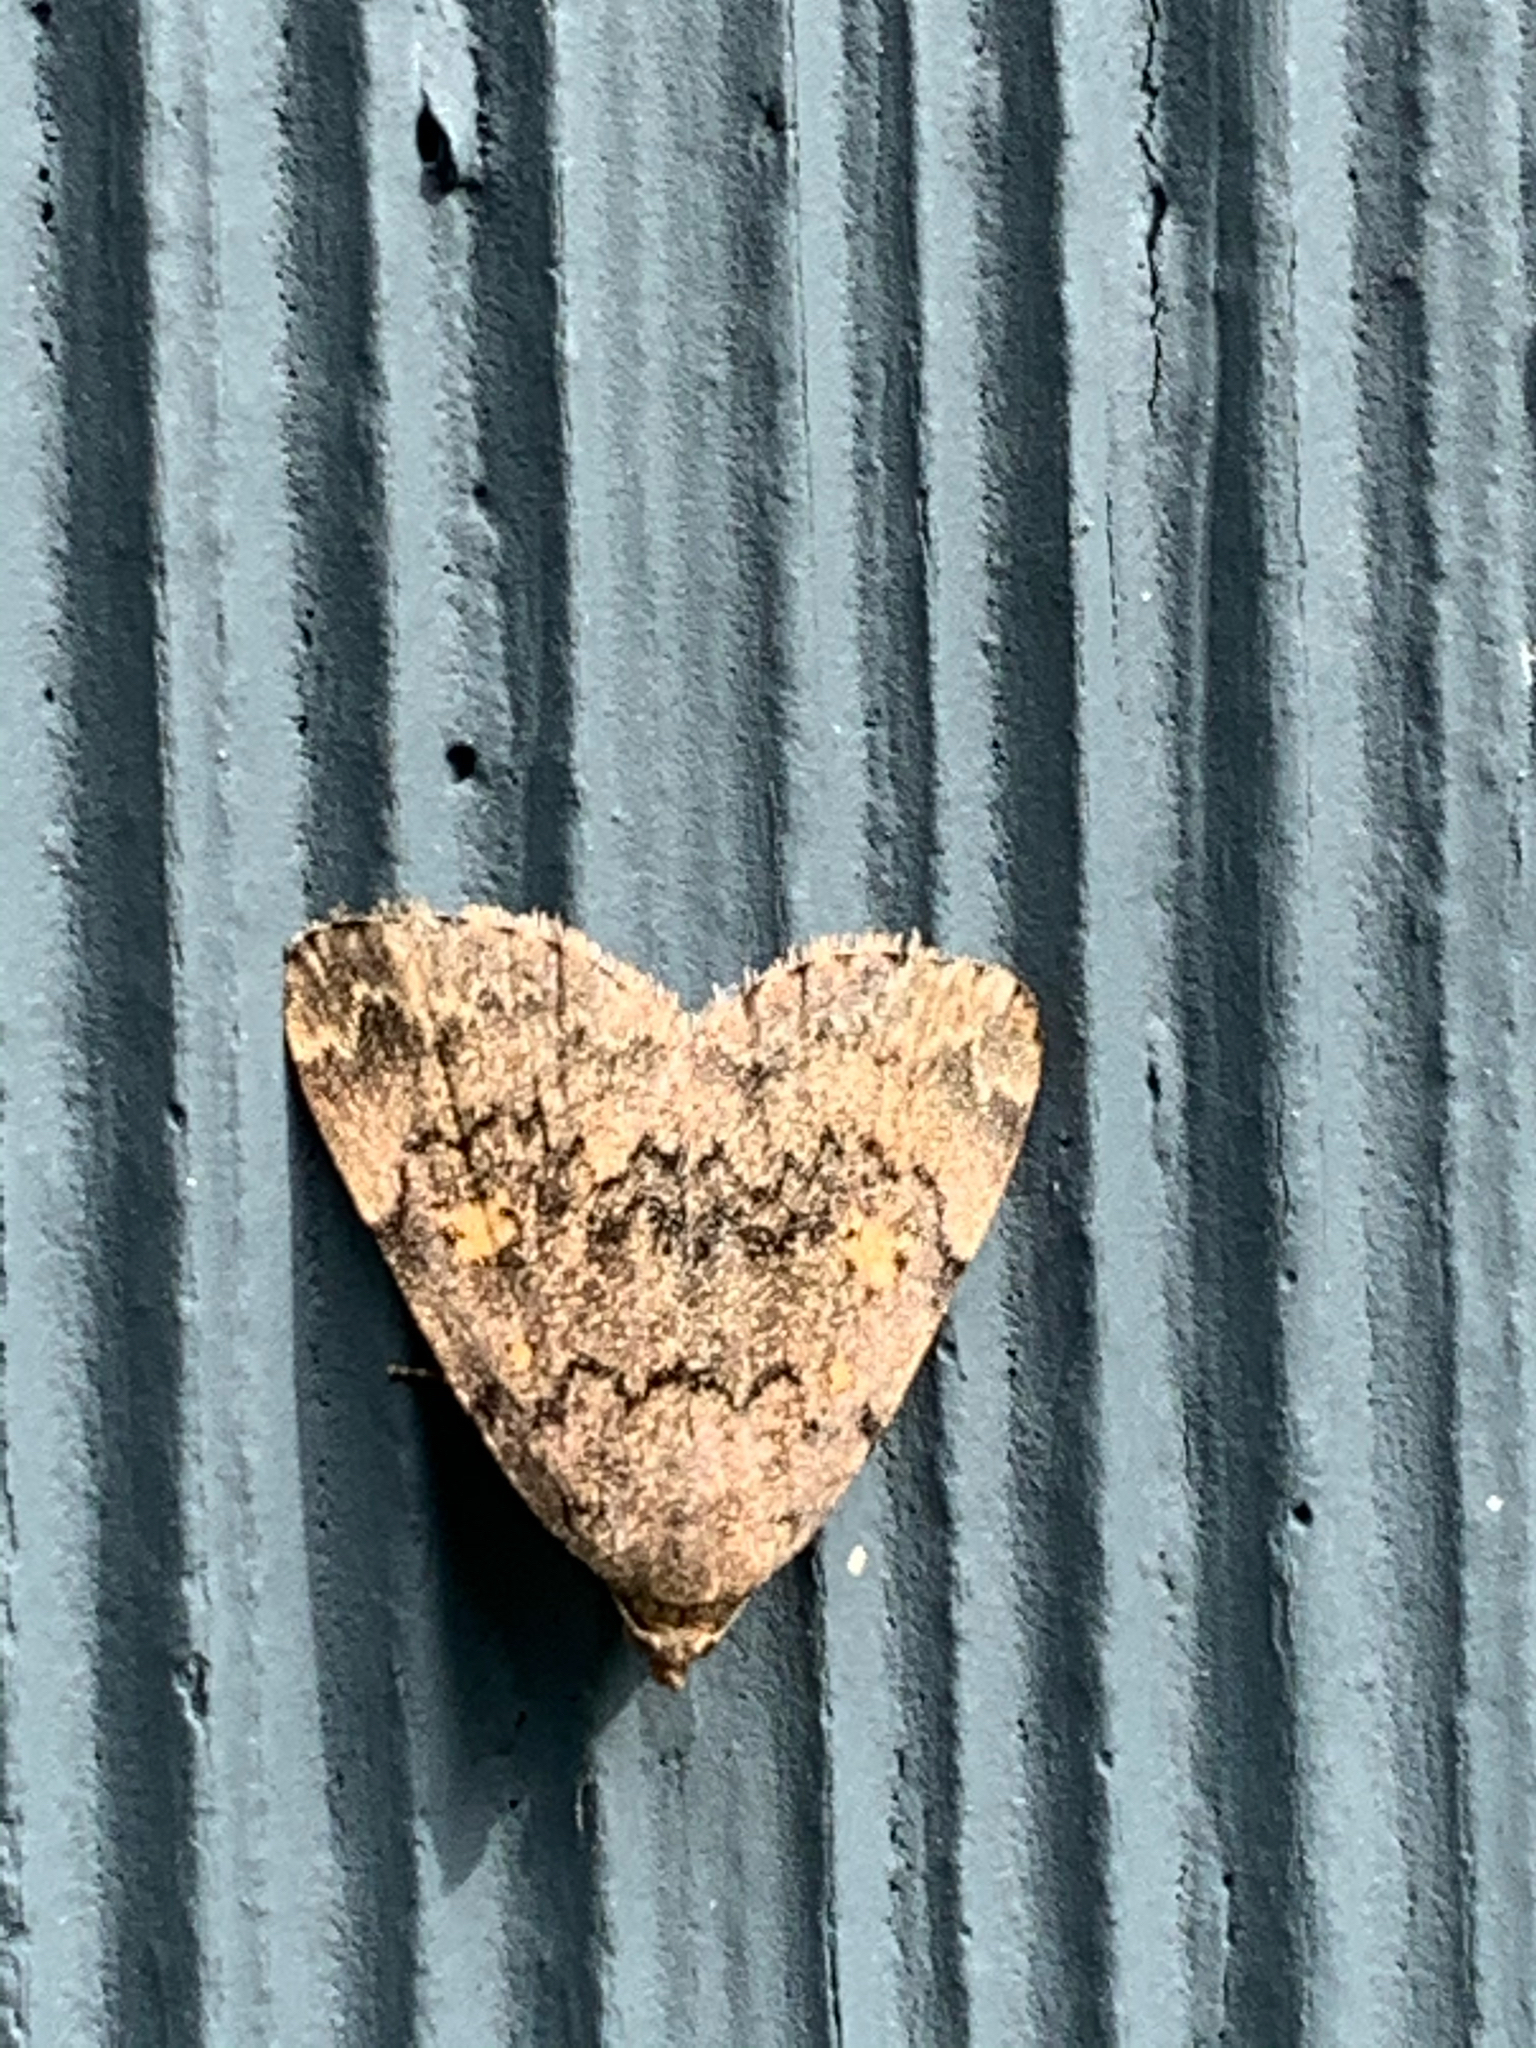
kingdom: Animalia
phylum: Arthropoda
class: Insecta
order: Lepidoptera
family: Erebidae
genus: Idia
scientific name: Idia aemula
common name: Common idia moth
